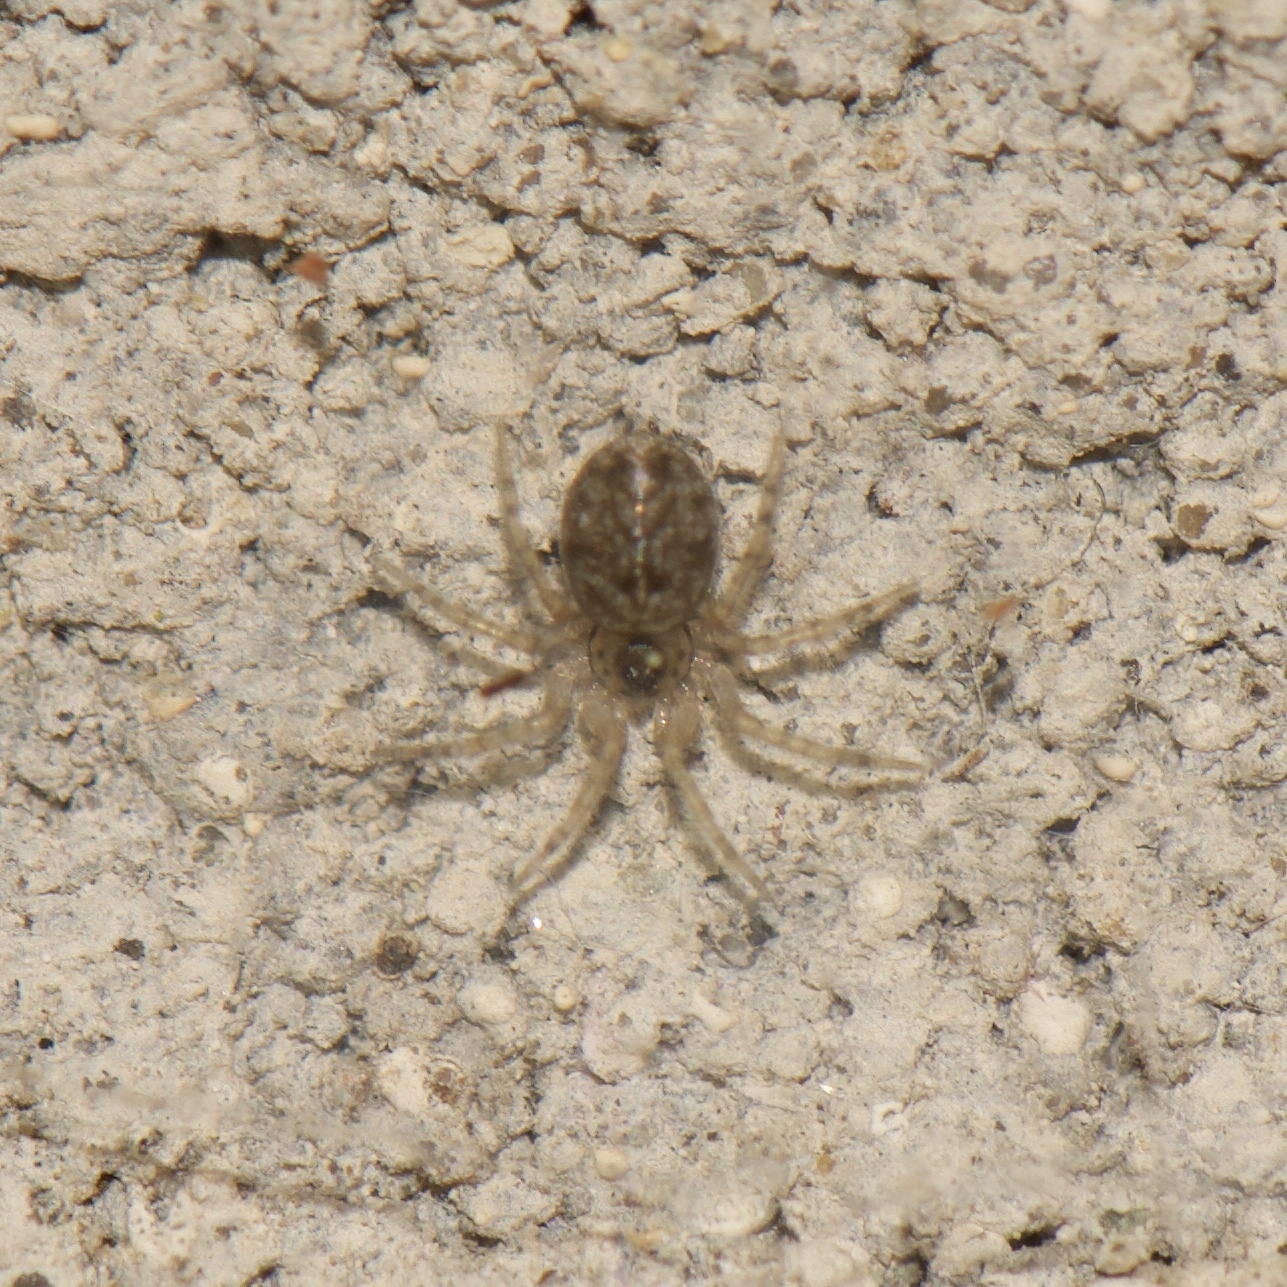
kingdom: Animalia
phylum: Arthropoda
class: Arachnida
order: Araneae
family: Oecobiidae
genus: Oecobius
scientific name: Oecobius navus
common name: Flatmesh weaver
